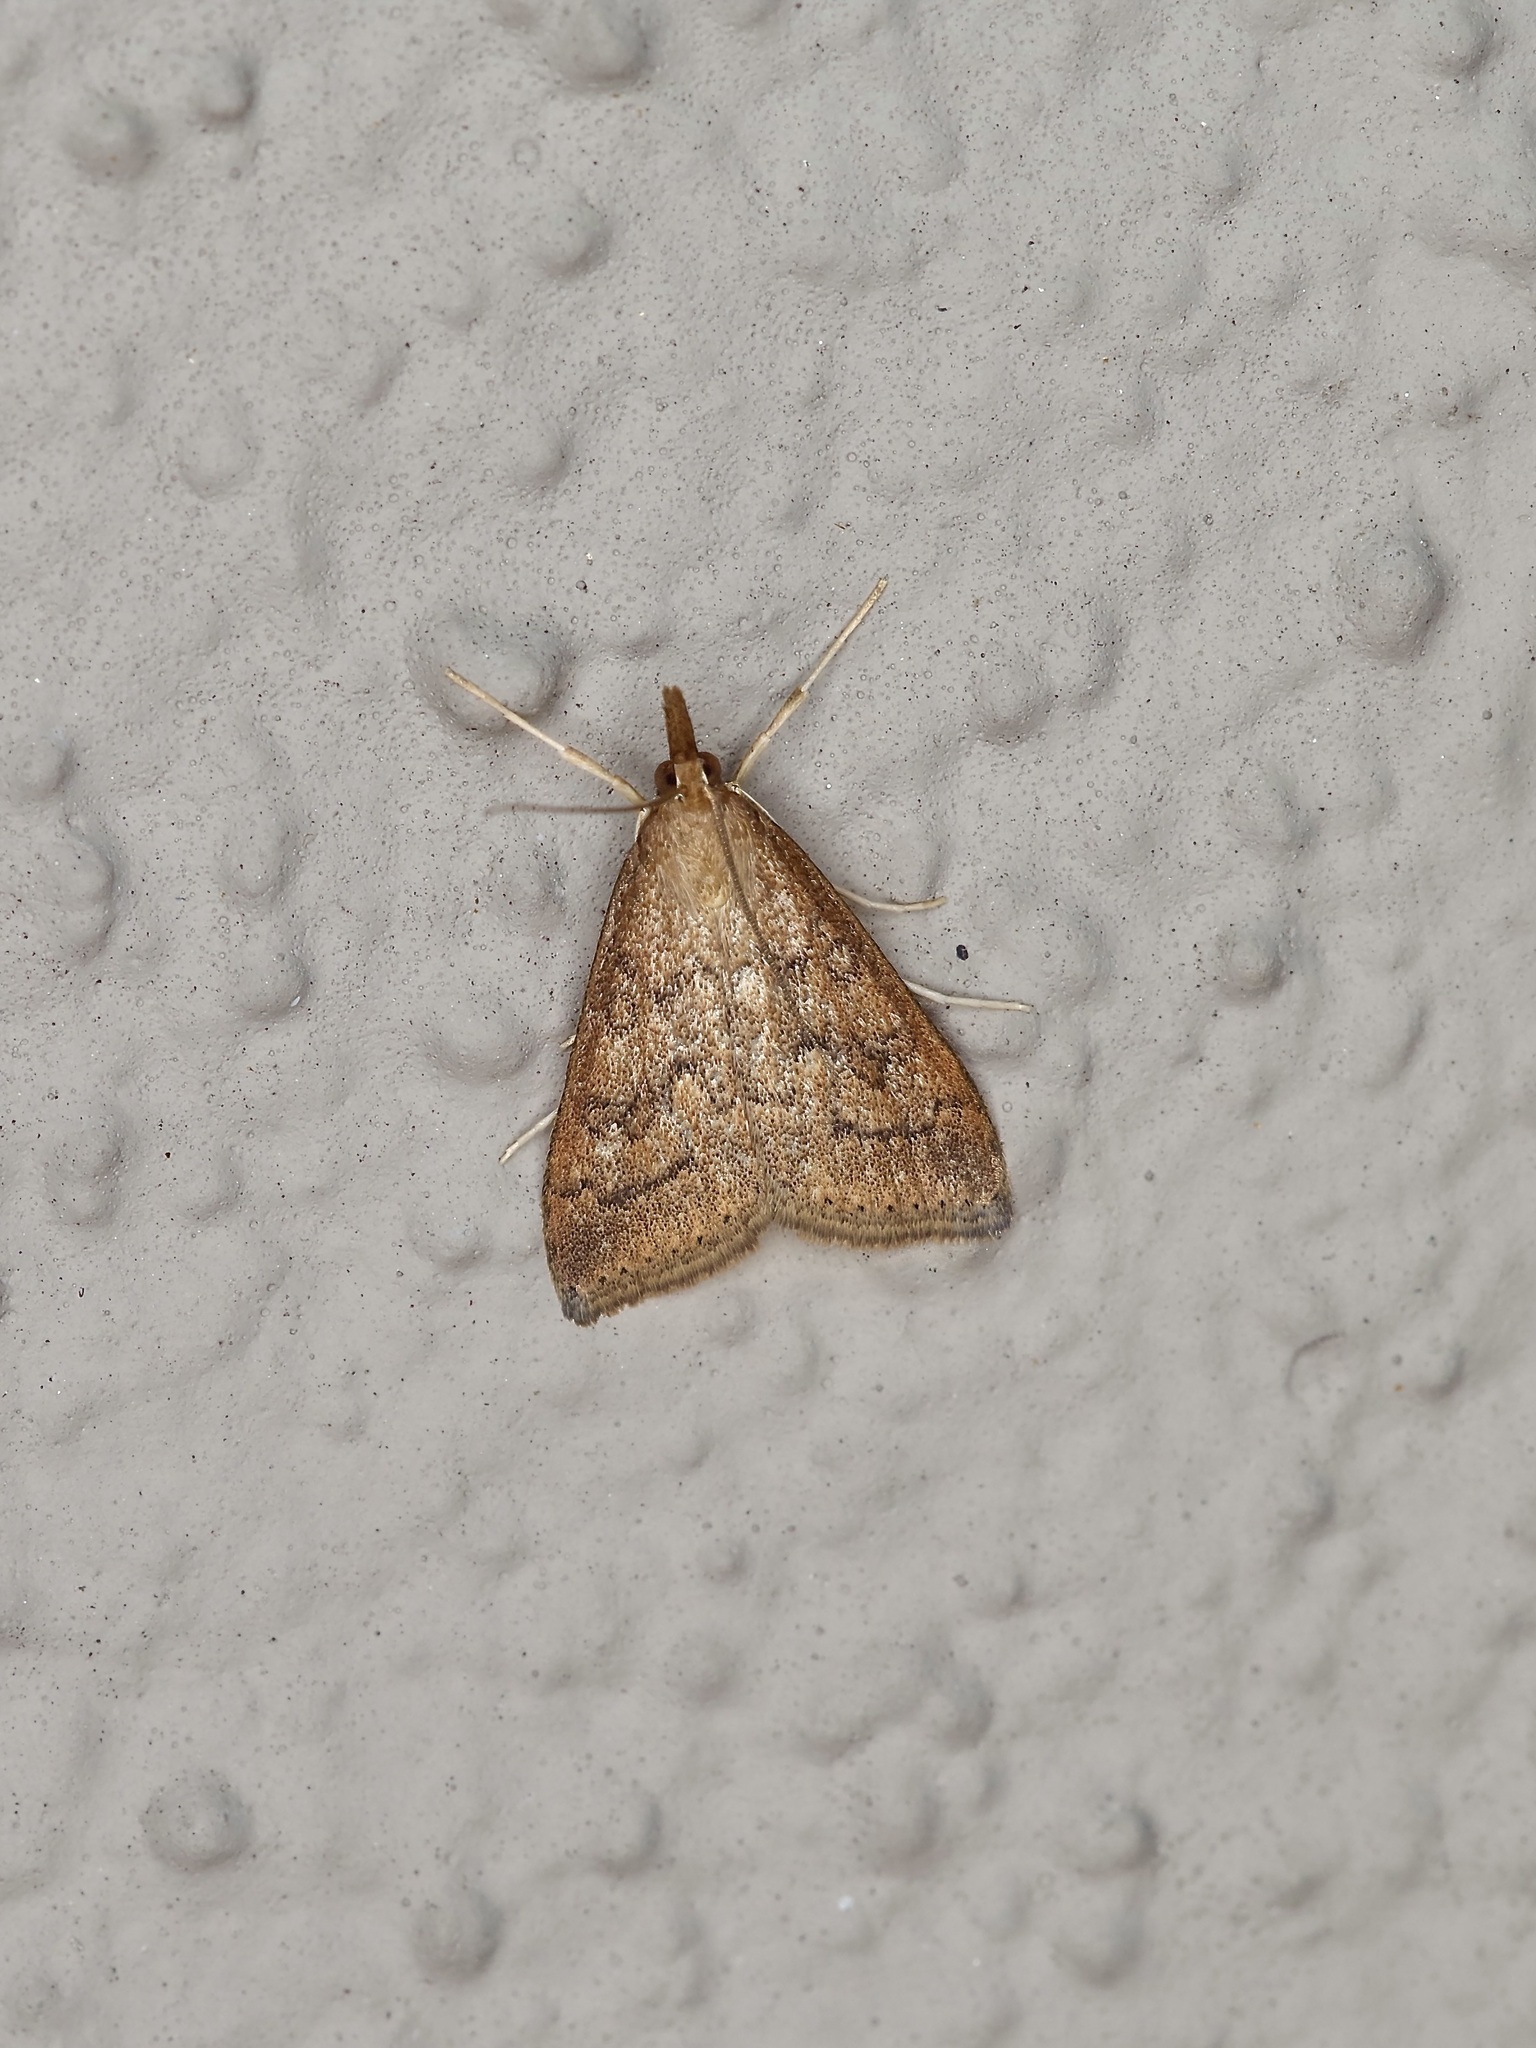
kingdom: Animalia
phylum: Arthropoda
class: Insecta
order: Lepidoptera
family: Crambidae
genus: Udea
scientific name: Udea rubigalis
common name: Celery leaftier moth
